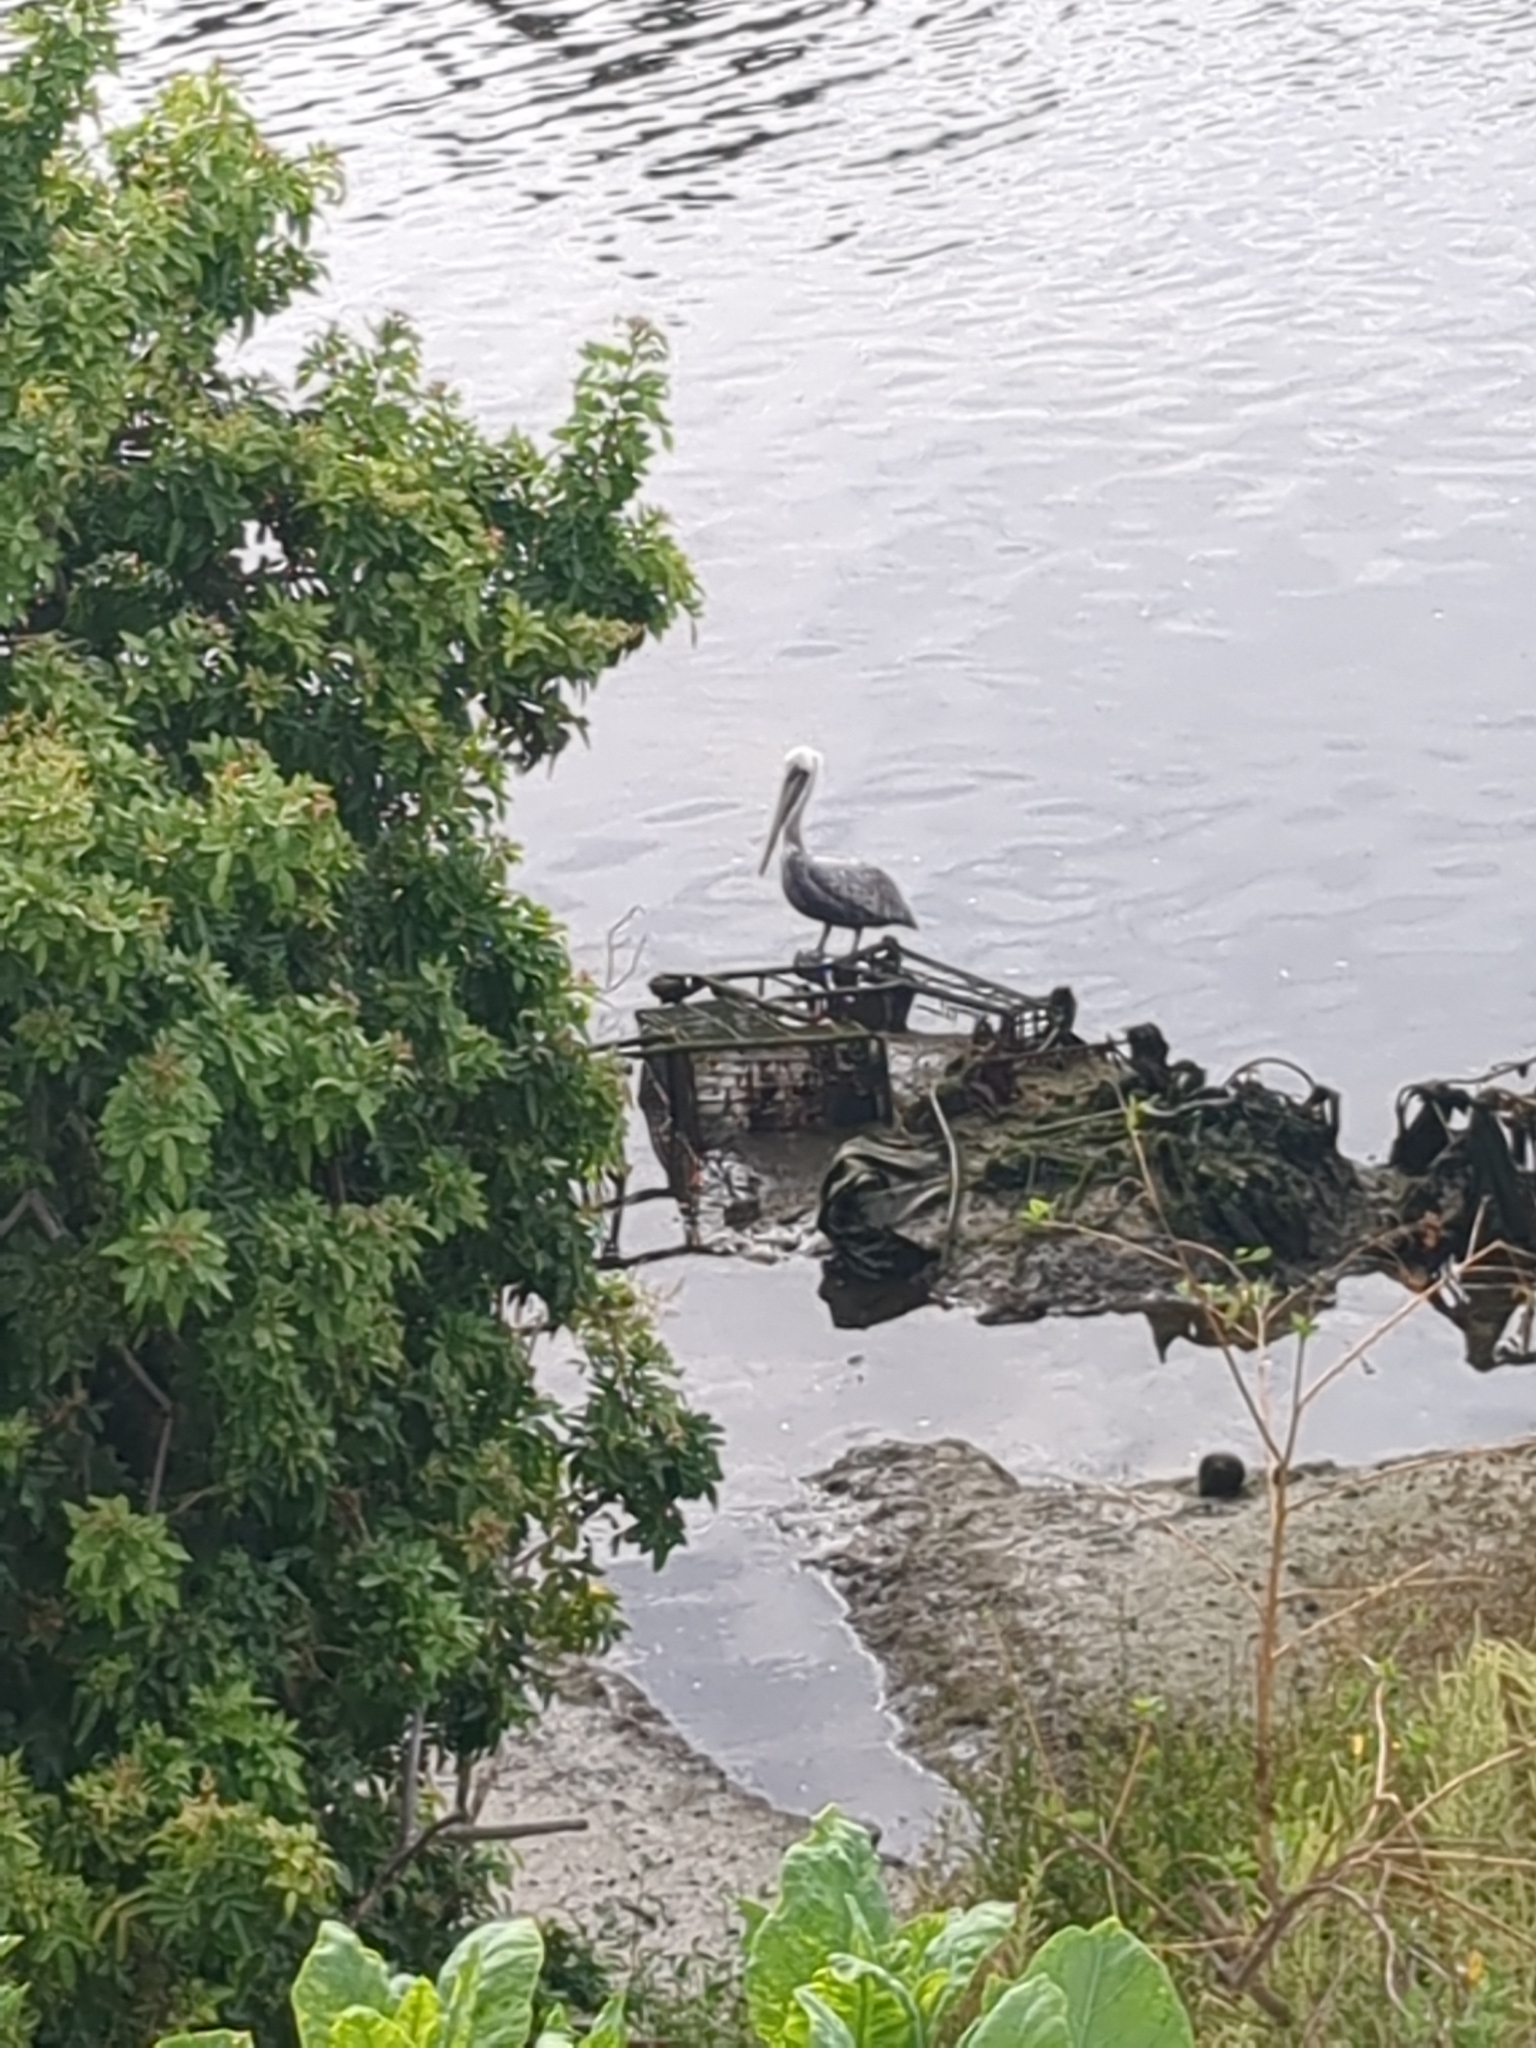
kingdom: Animalia
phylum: Chordata
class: Aves
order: Pelecaniformes
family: Pelecanidae
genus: Pelecanus
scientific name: Pelecanus occidentalis
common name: Brown pelican
